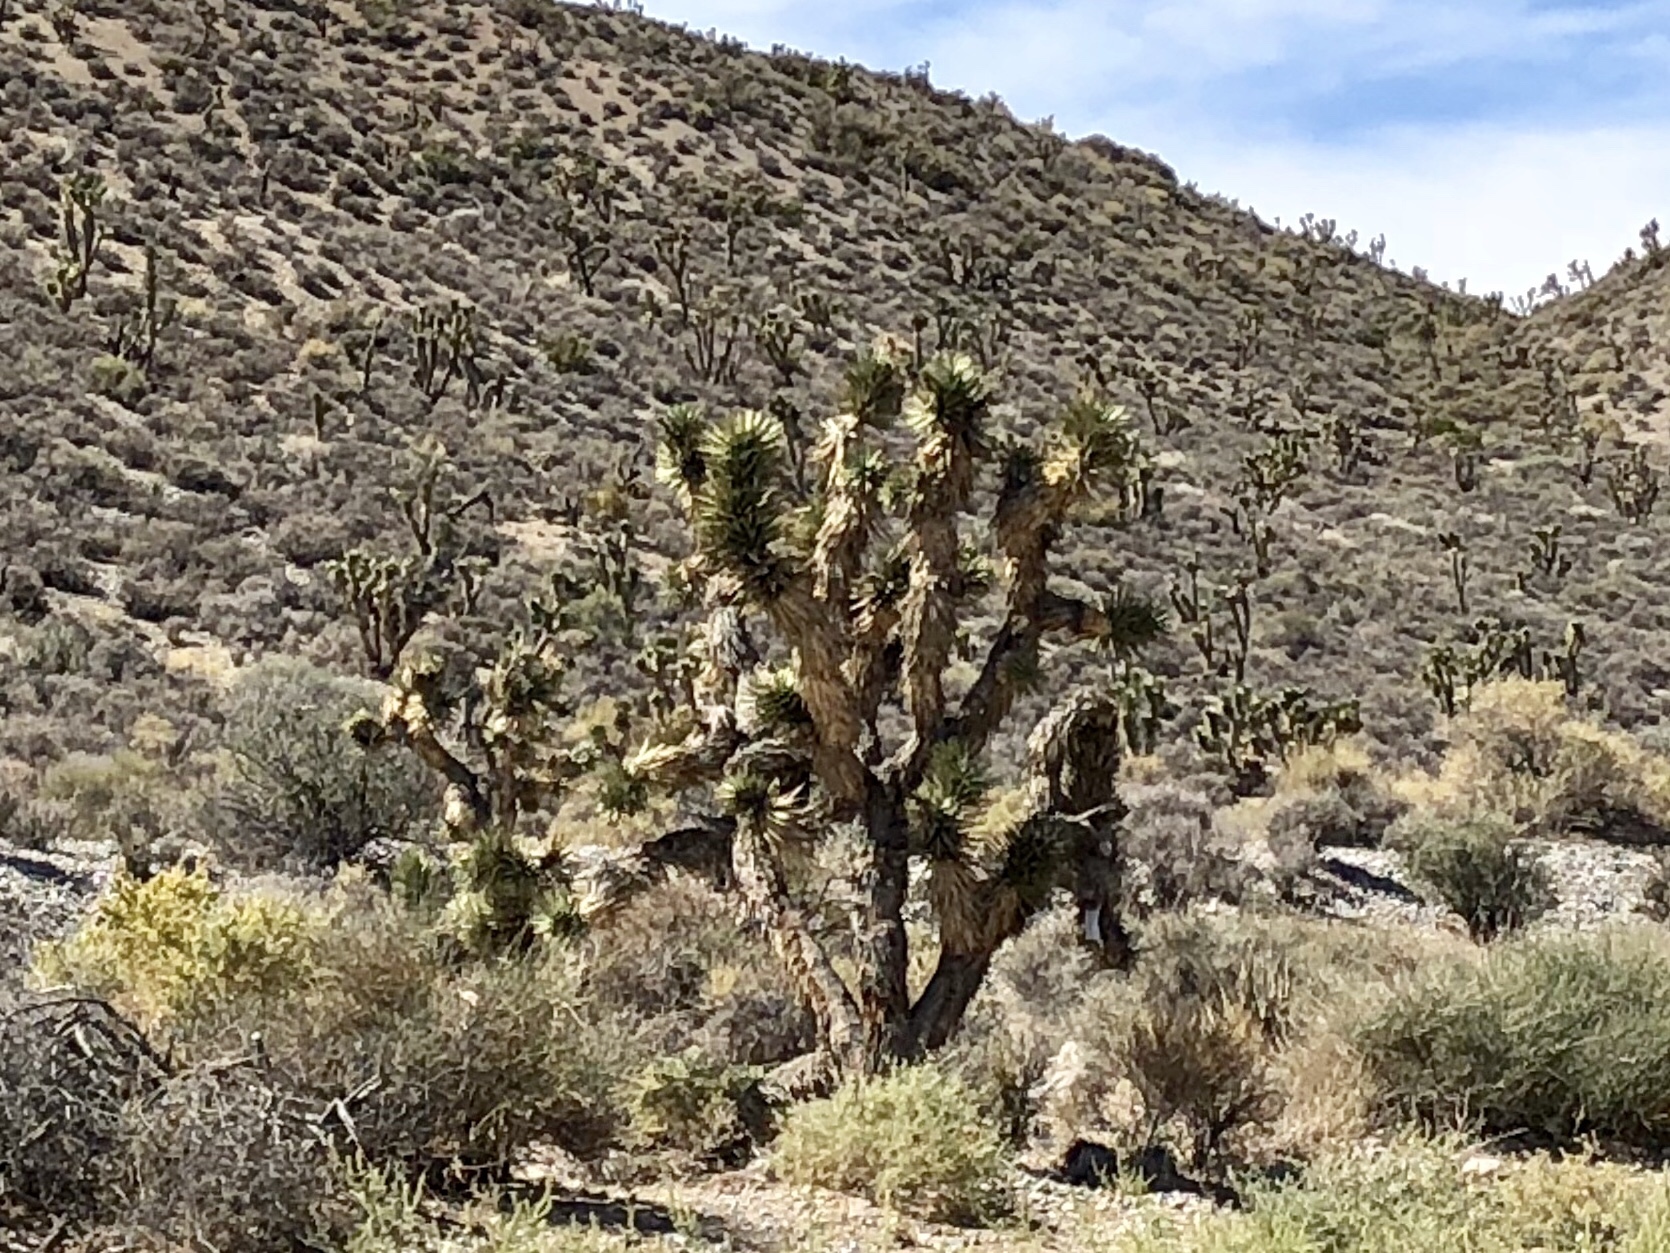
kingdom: Plantae
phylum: Tracheophyta
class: Liliopsida
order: Asparagales
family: Asparagaceae
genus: Yucca
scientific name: Yucca brevifolia
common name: Joshua tree
